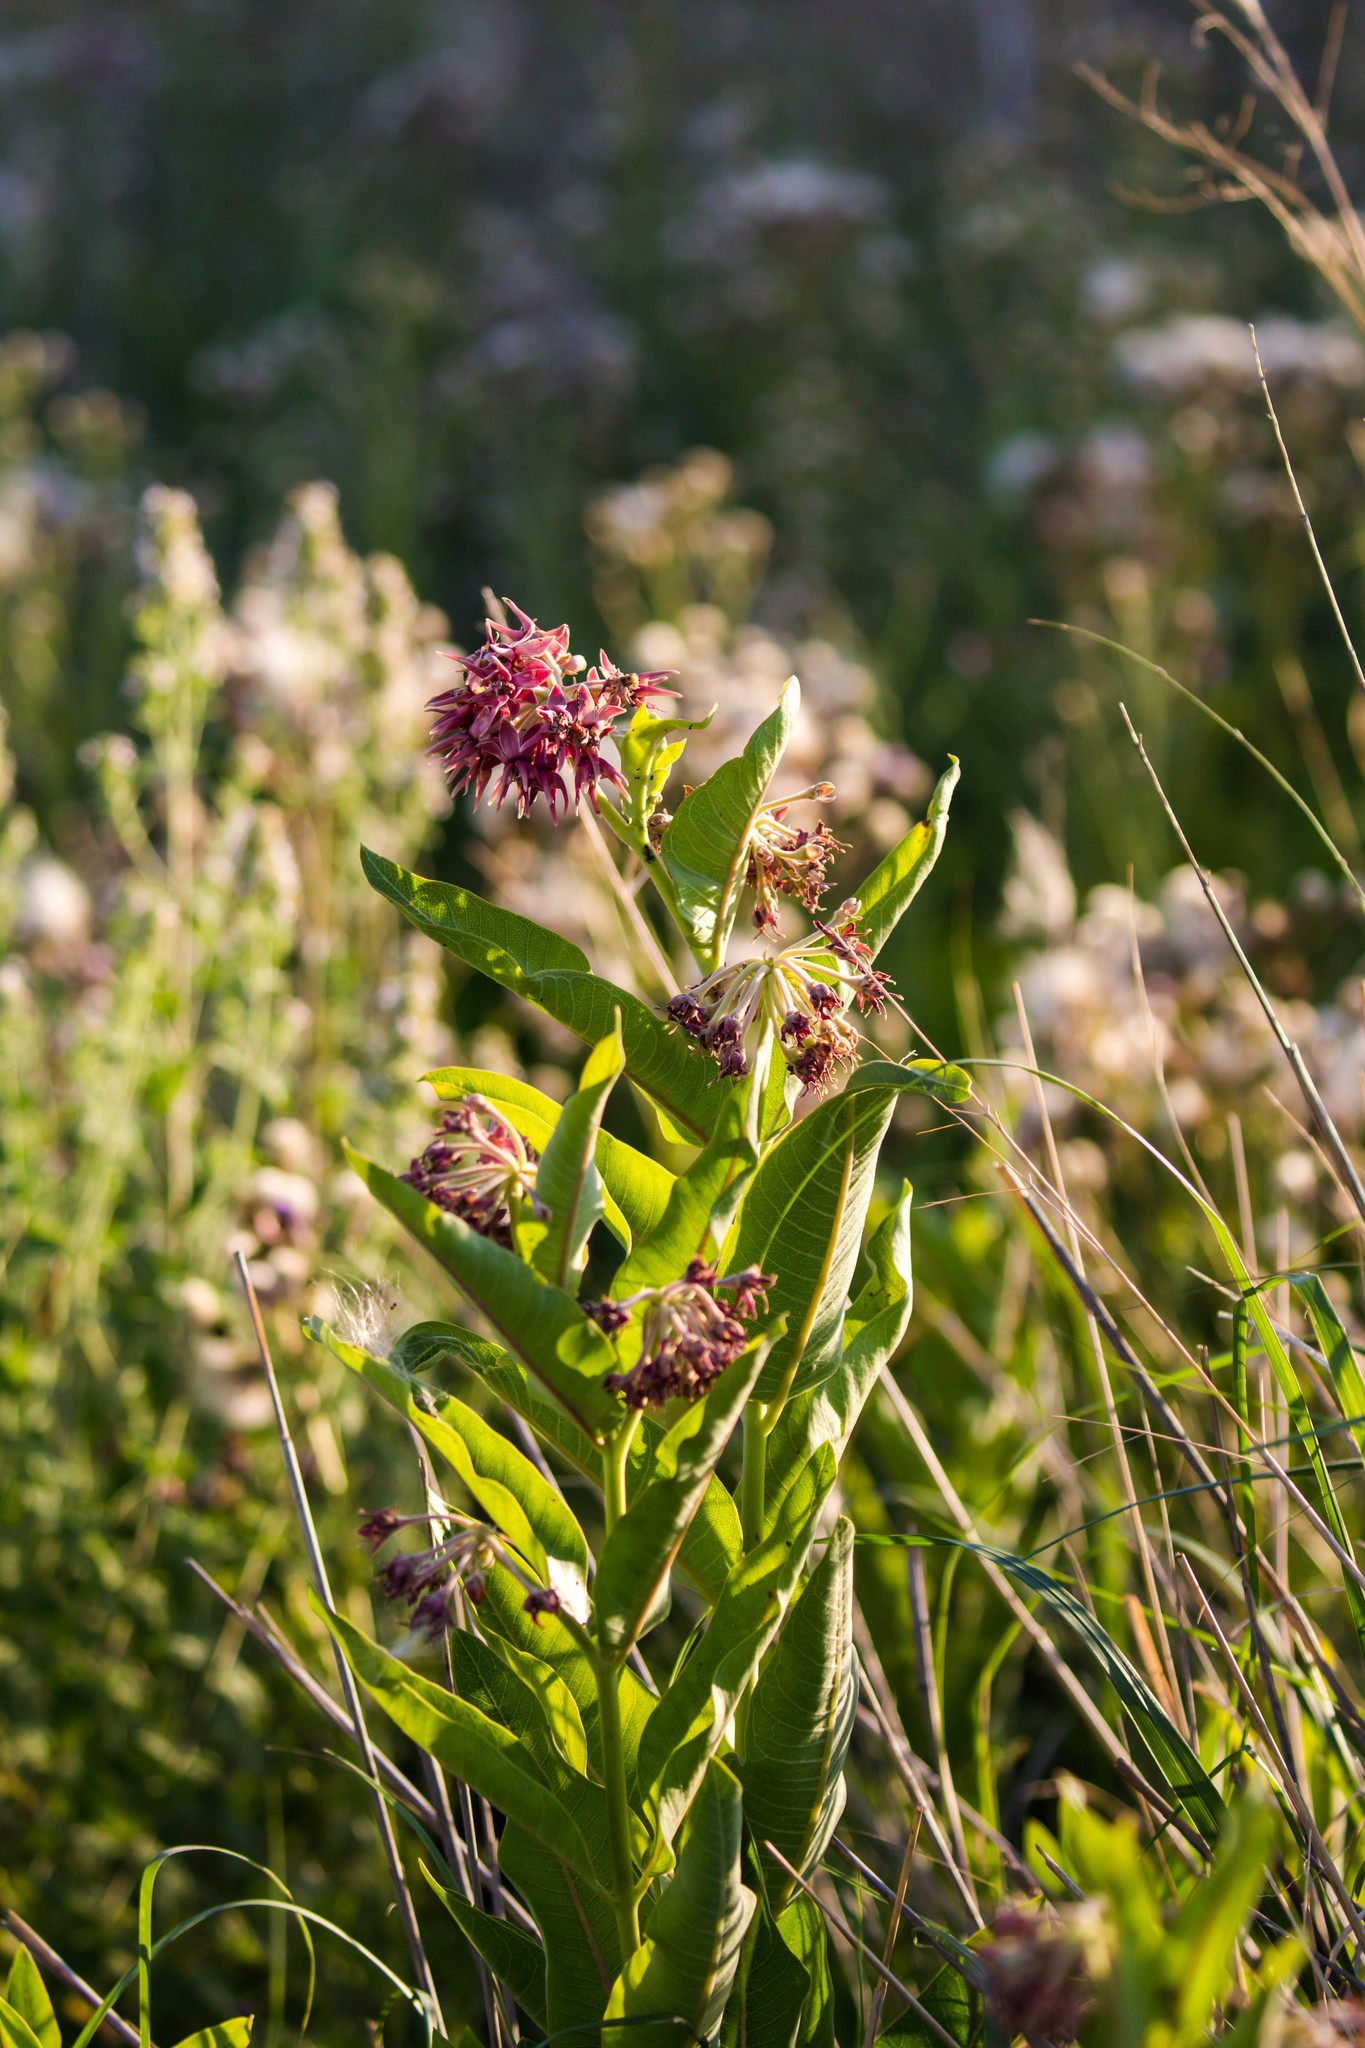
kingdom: Plantae
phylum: Tracheophyta
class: Magnoliopsida
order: Gentianales
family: Apocynaceae
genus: Asclepias
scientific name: Asclepias speciosa
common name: Showy milkweed
